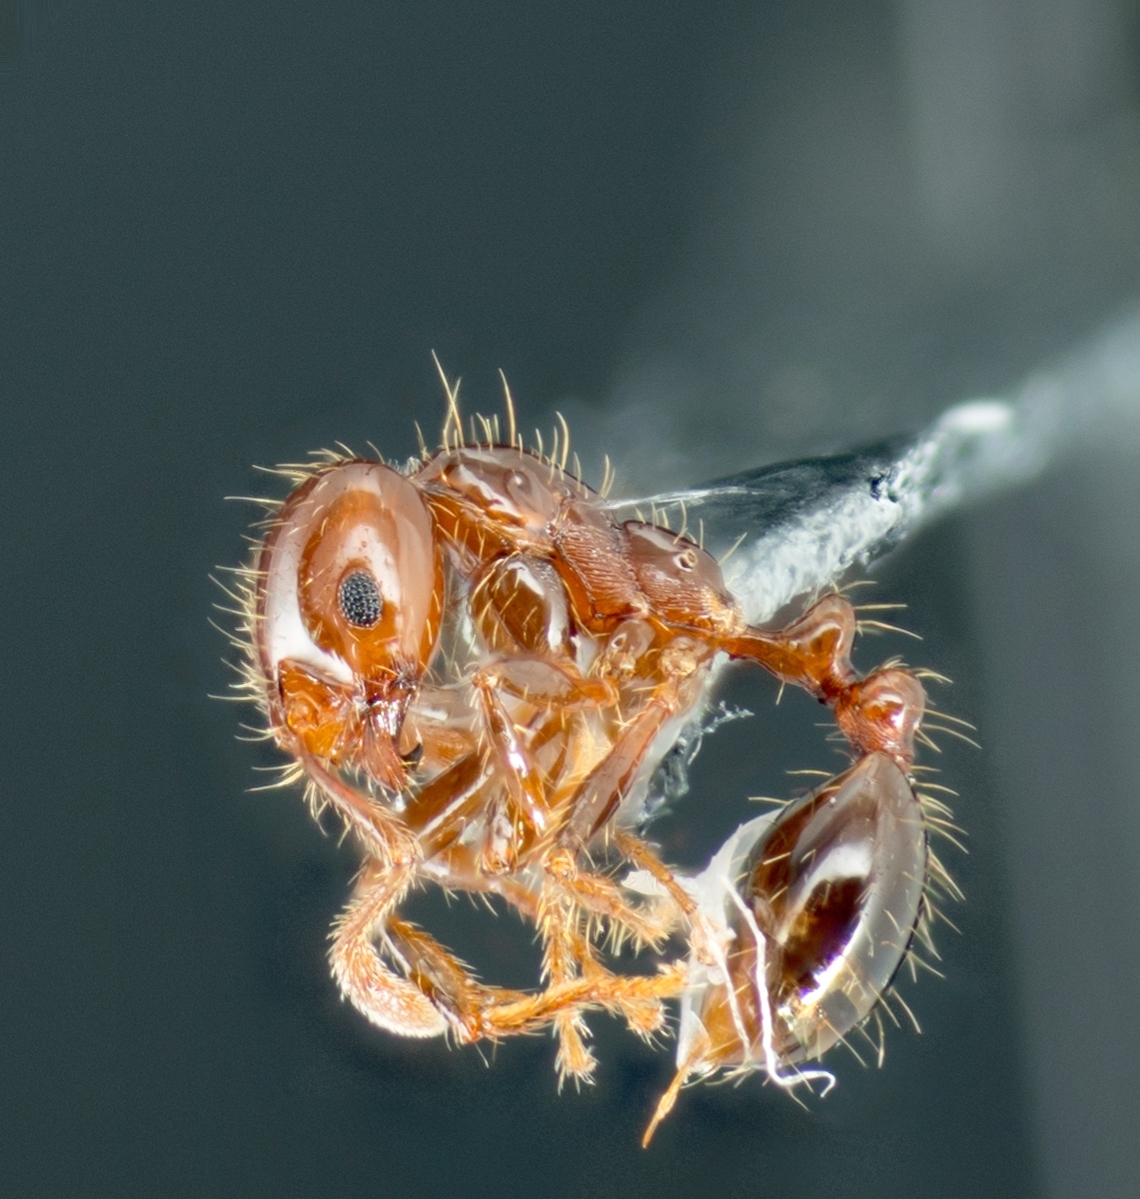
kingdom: Animalia
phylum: Arthropoda
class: Insecta
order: Hymenoptera
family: Formicidae
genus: Solenopsis
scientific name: Solenopsis invicta
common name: Red imported fire ant
